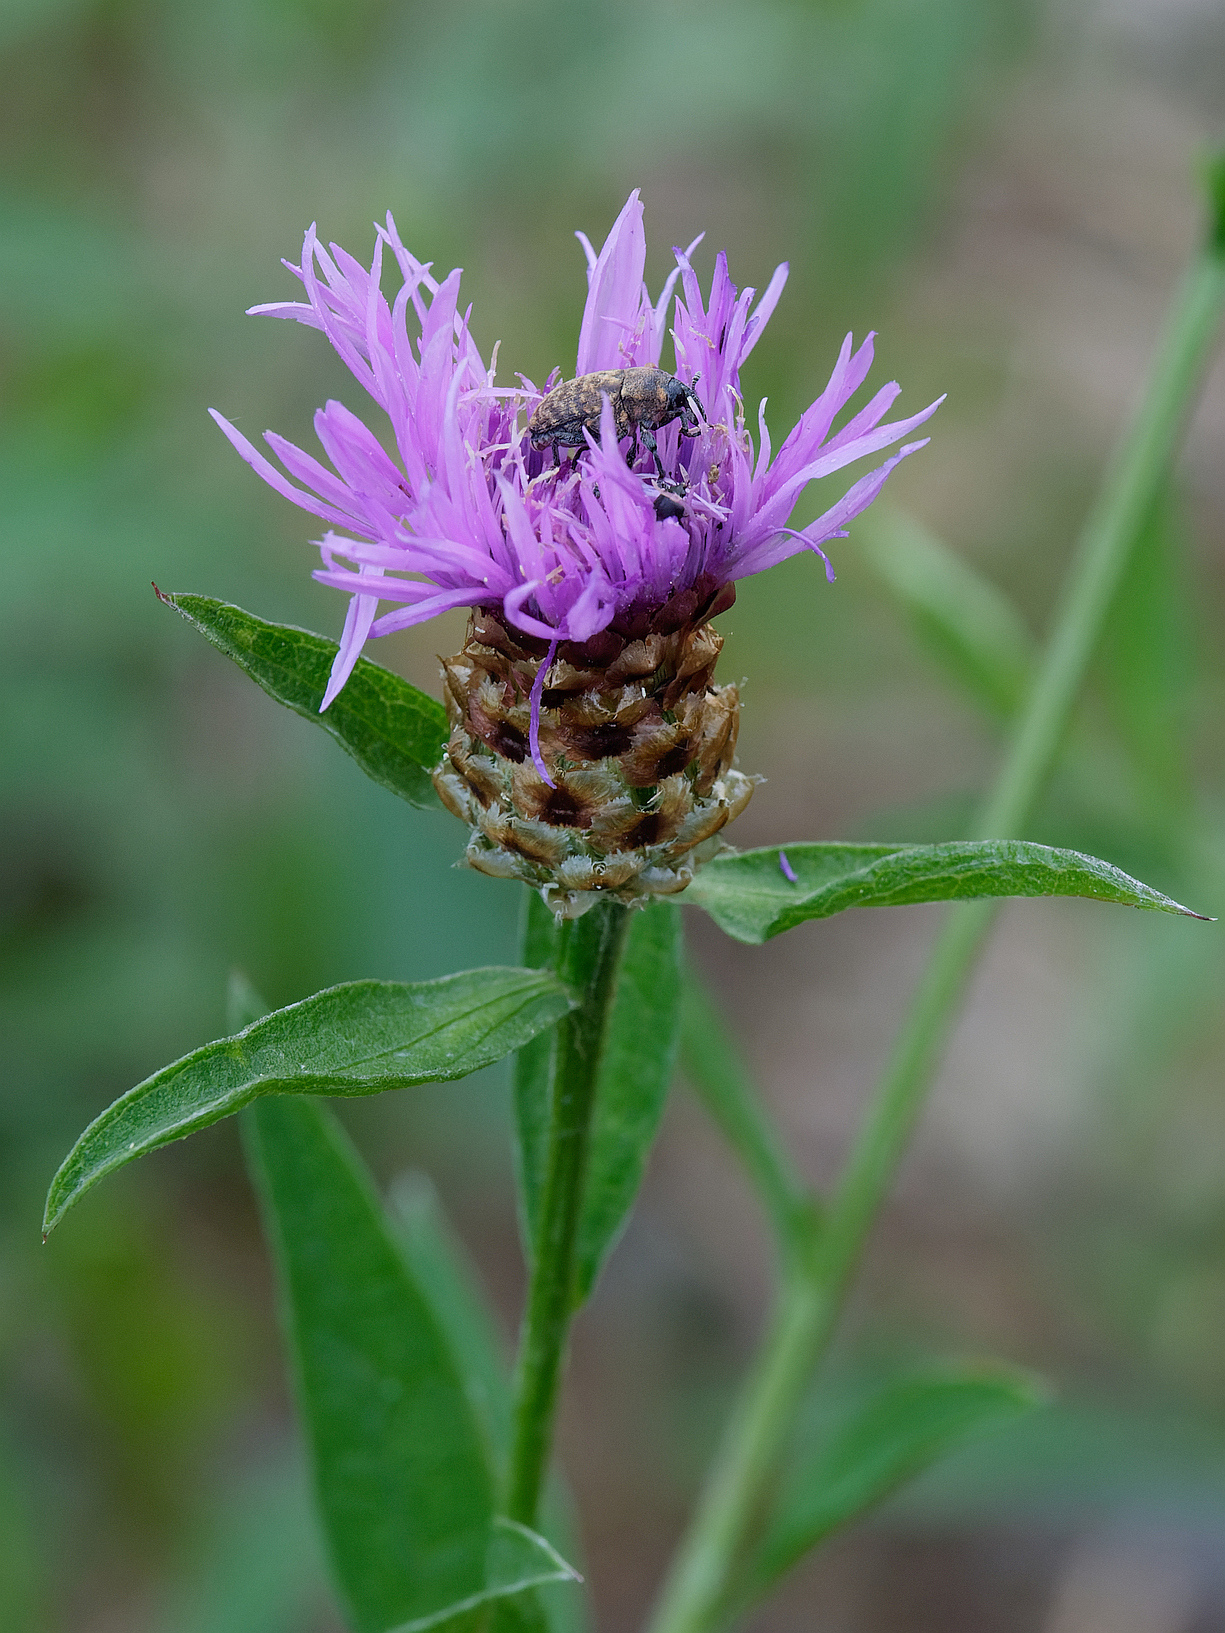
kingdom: Plantae
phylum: Tracheophyta
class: Magnoliopsida
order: Asterales
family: Asteraceae
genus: Centaurea
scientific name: Centaurea jacea
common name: Brown knapweed
